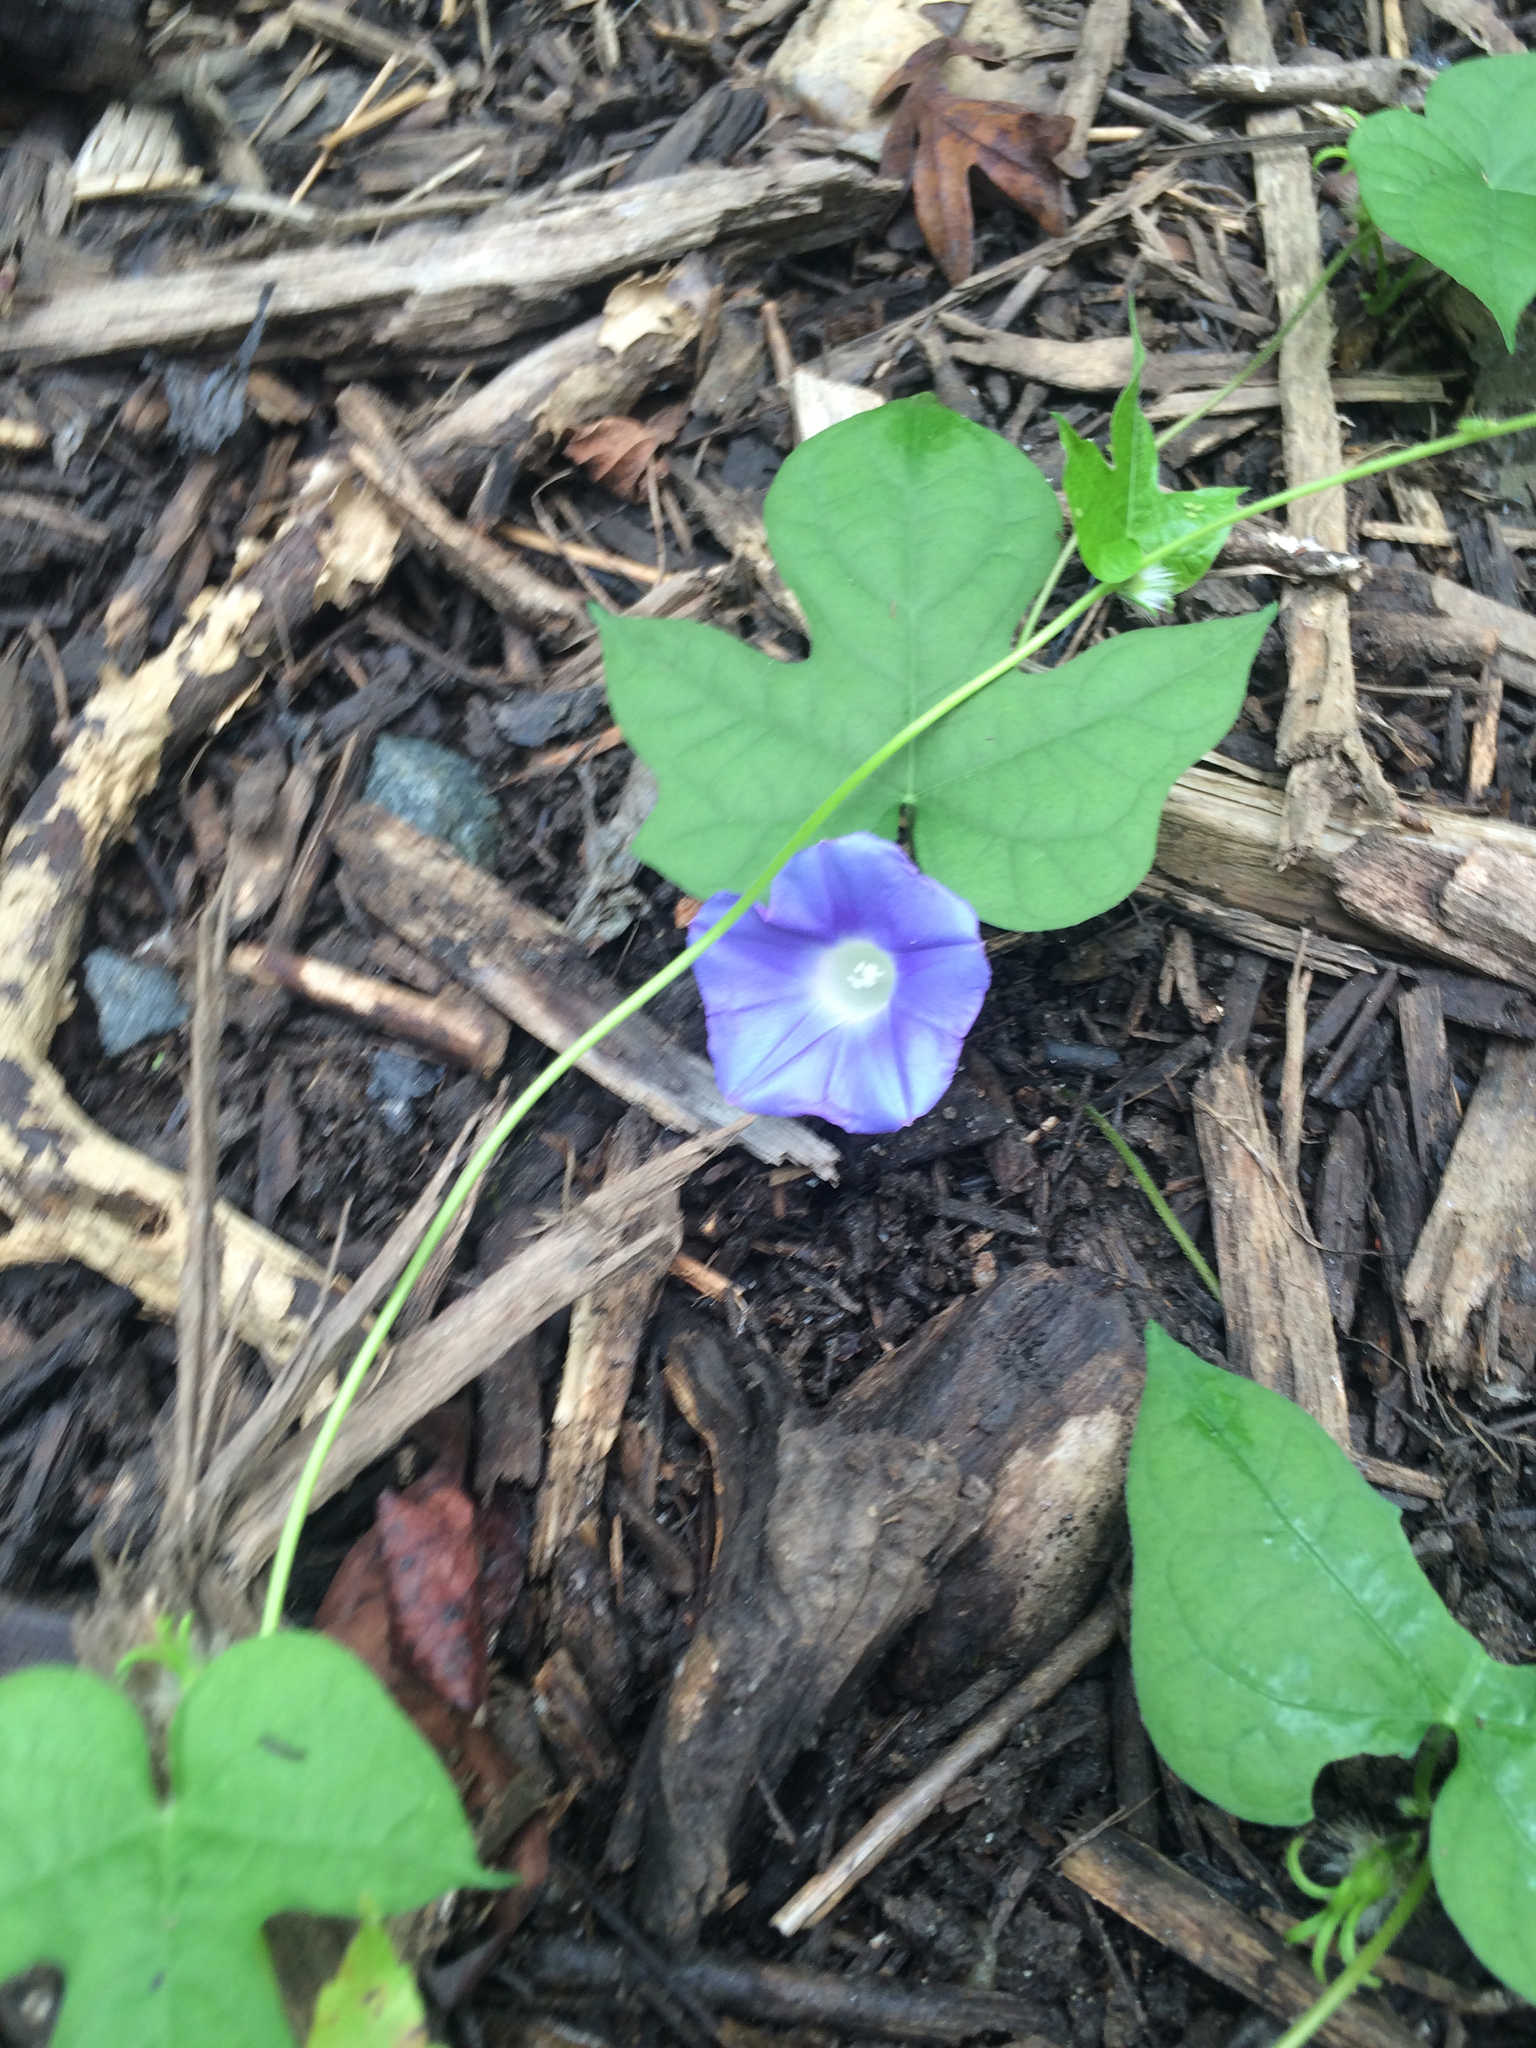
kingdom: Plantae
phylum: Tracheophyta
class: Magnoliopsida
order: Solanales
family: Convolvulaceae
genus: Ipomoea
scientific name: Ipomoea hederacea
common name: Ivy-leaved morning-glory
